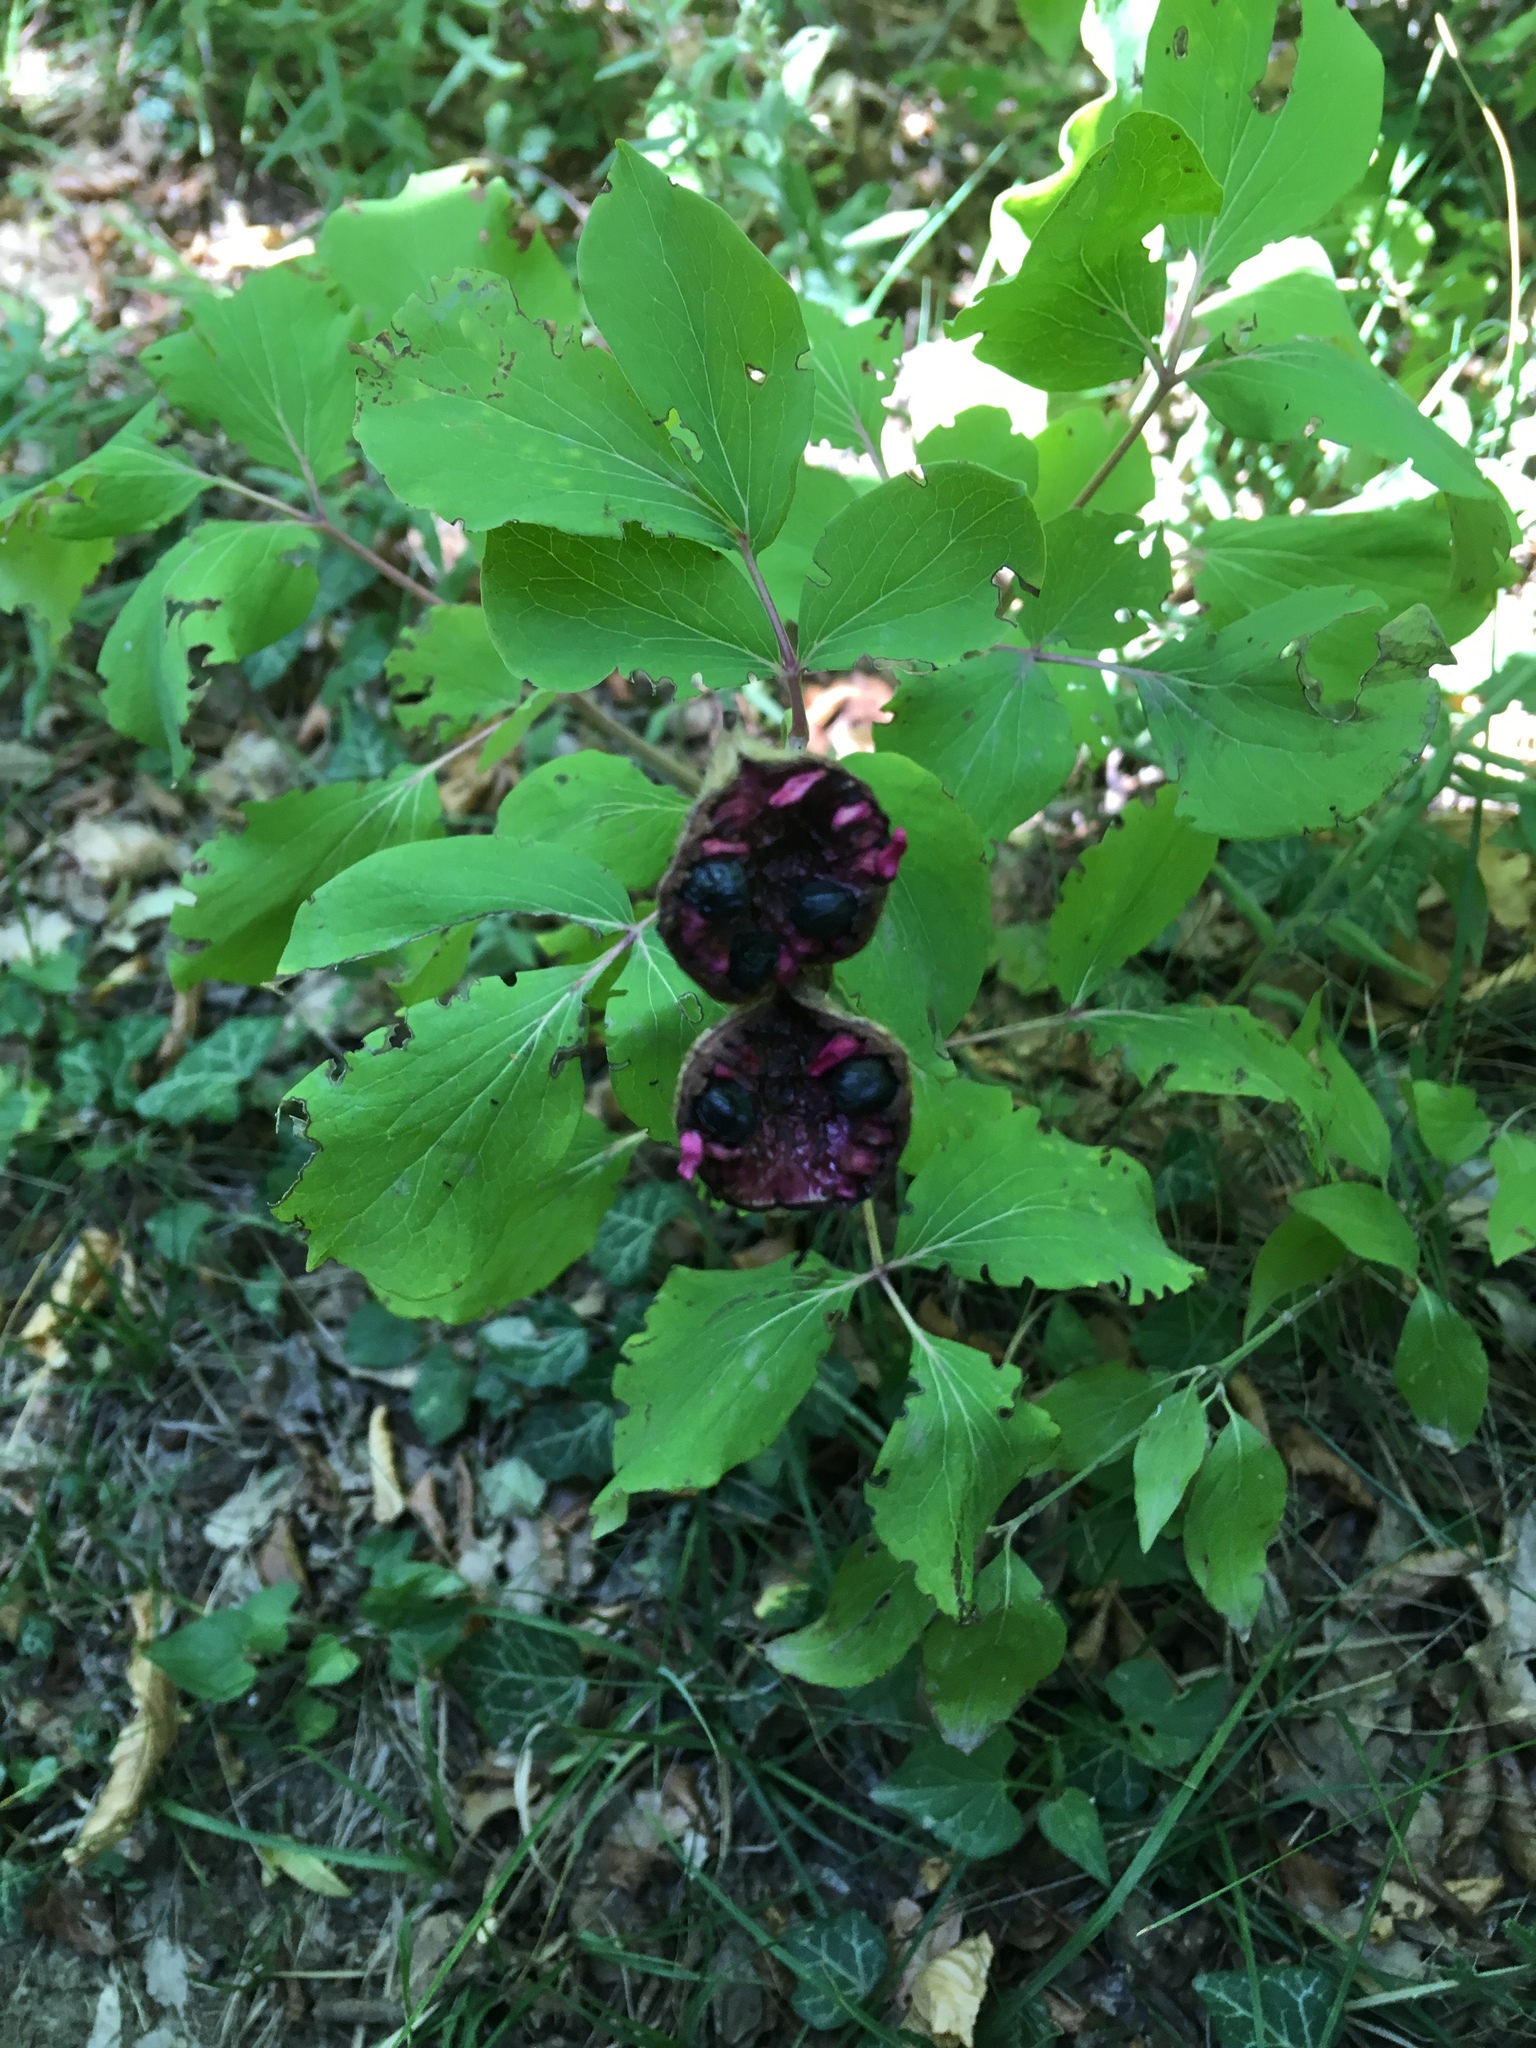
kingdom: Plantae
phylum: Tracheophyta
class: Magnoliopsida
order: Saxifragales
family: Paeoniaceae
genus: Paeonia
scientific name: Paeonia daurica
